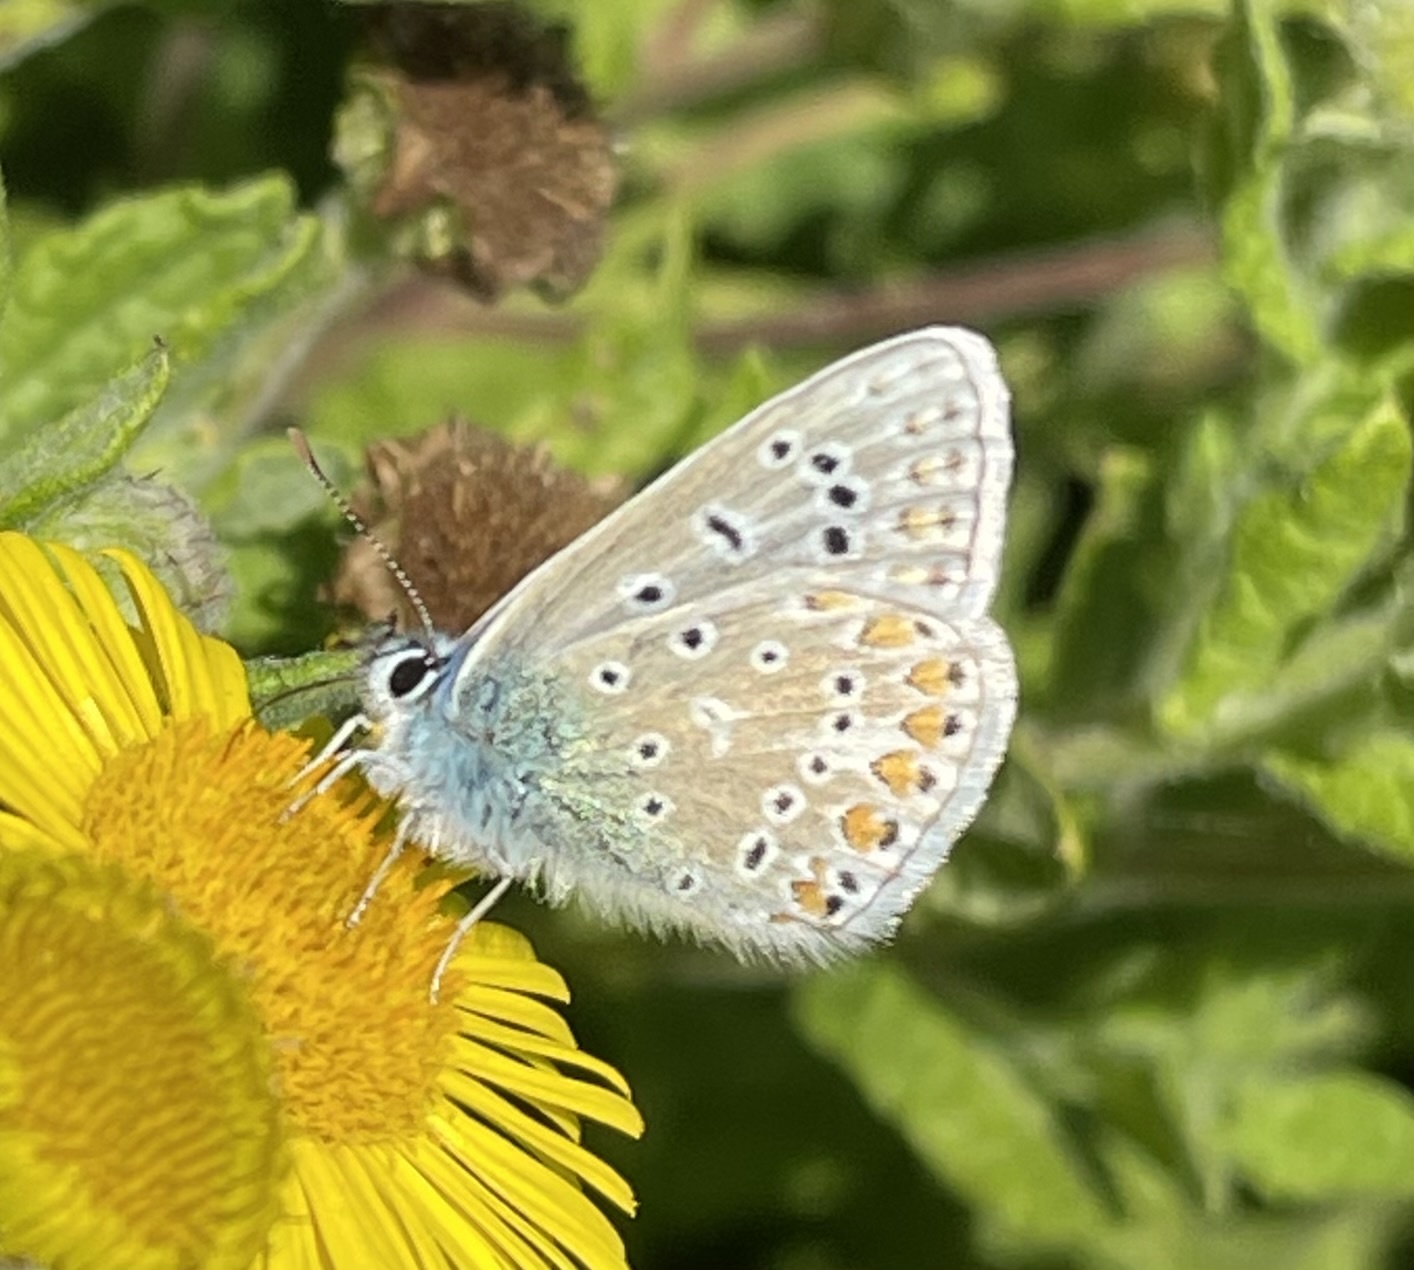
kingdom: Animalia
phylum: Arthropoda
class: Insecta
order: Lepidoptera
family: Lycaenidae
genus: Polyommatus
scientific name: Polyommatus icarus
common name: Common blue
